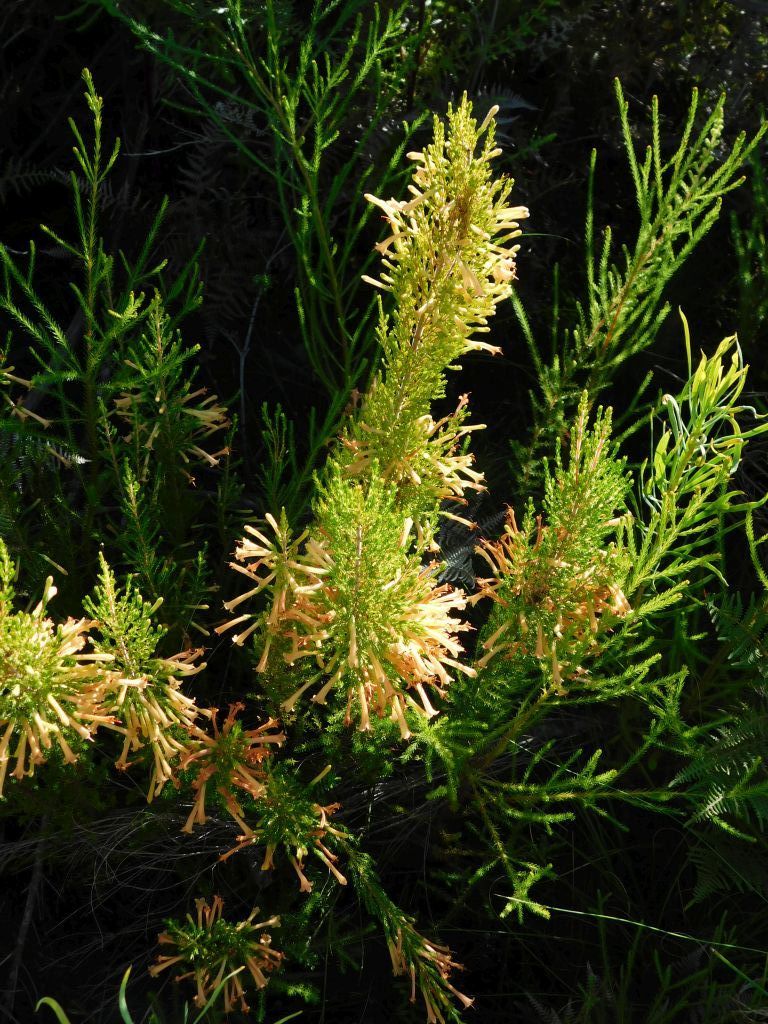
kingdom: Plantae
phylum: Tracheophyta
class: Magnoliopsida
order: Ericales
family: Ericaceae
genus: Erica
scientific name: Erica curviflora
